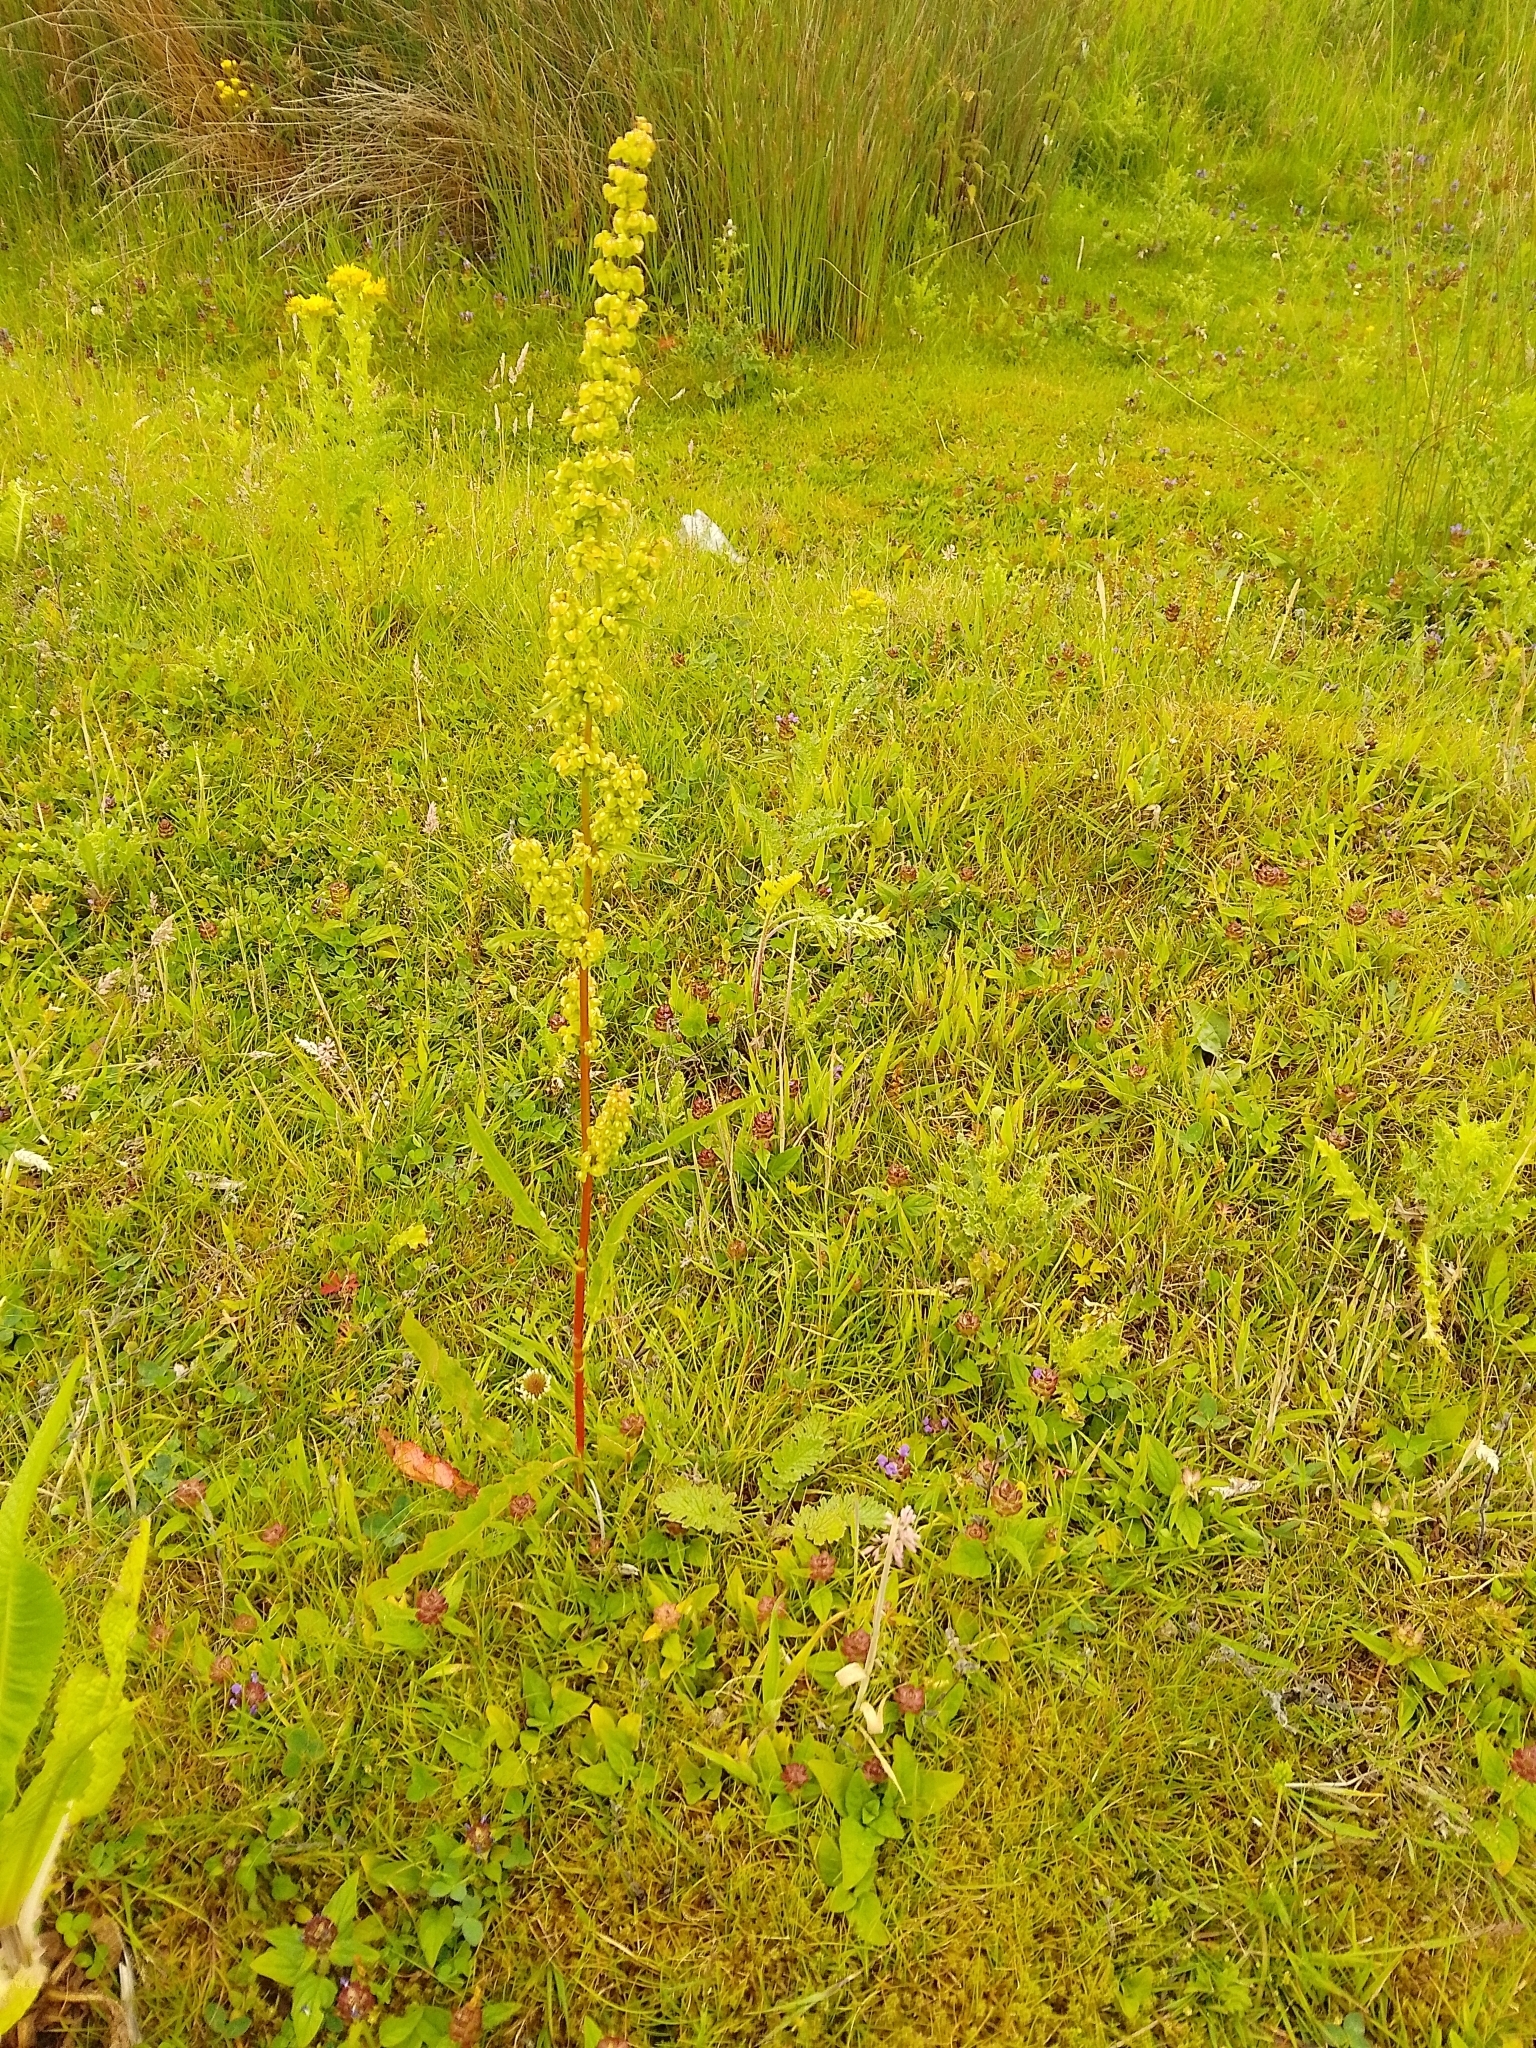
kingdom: Plantae
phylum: Tracheophyta
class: Magnoliopsida
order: Caryophyllales
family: Polygonaceae
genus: Rumex
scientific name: Rumex crispus
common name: Curled dock
